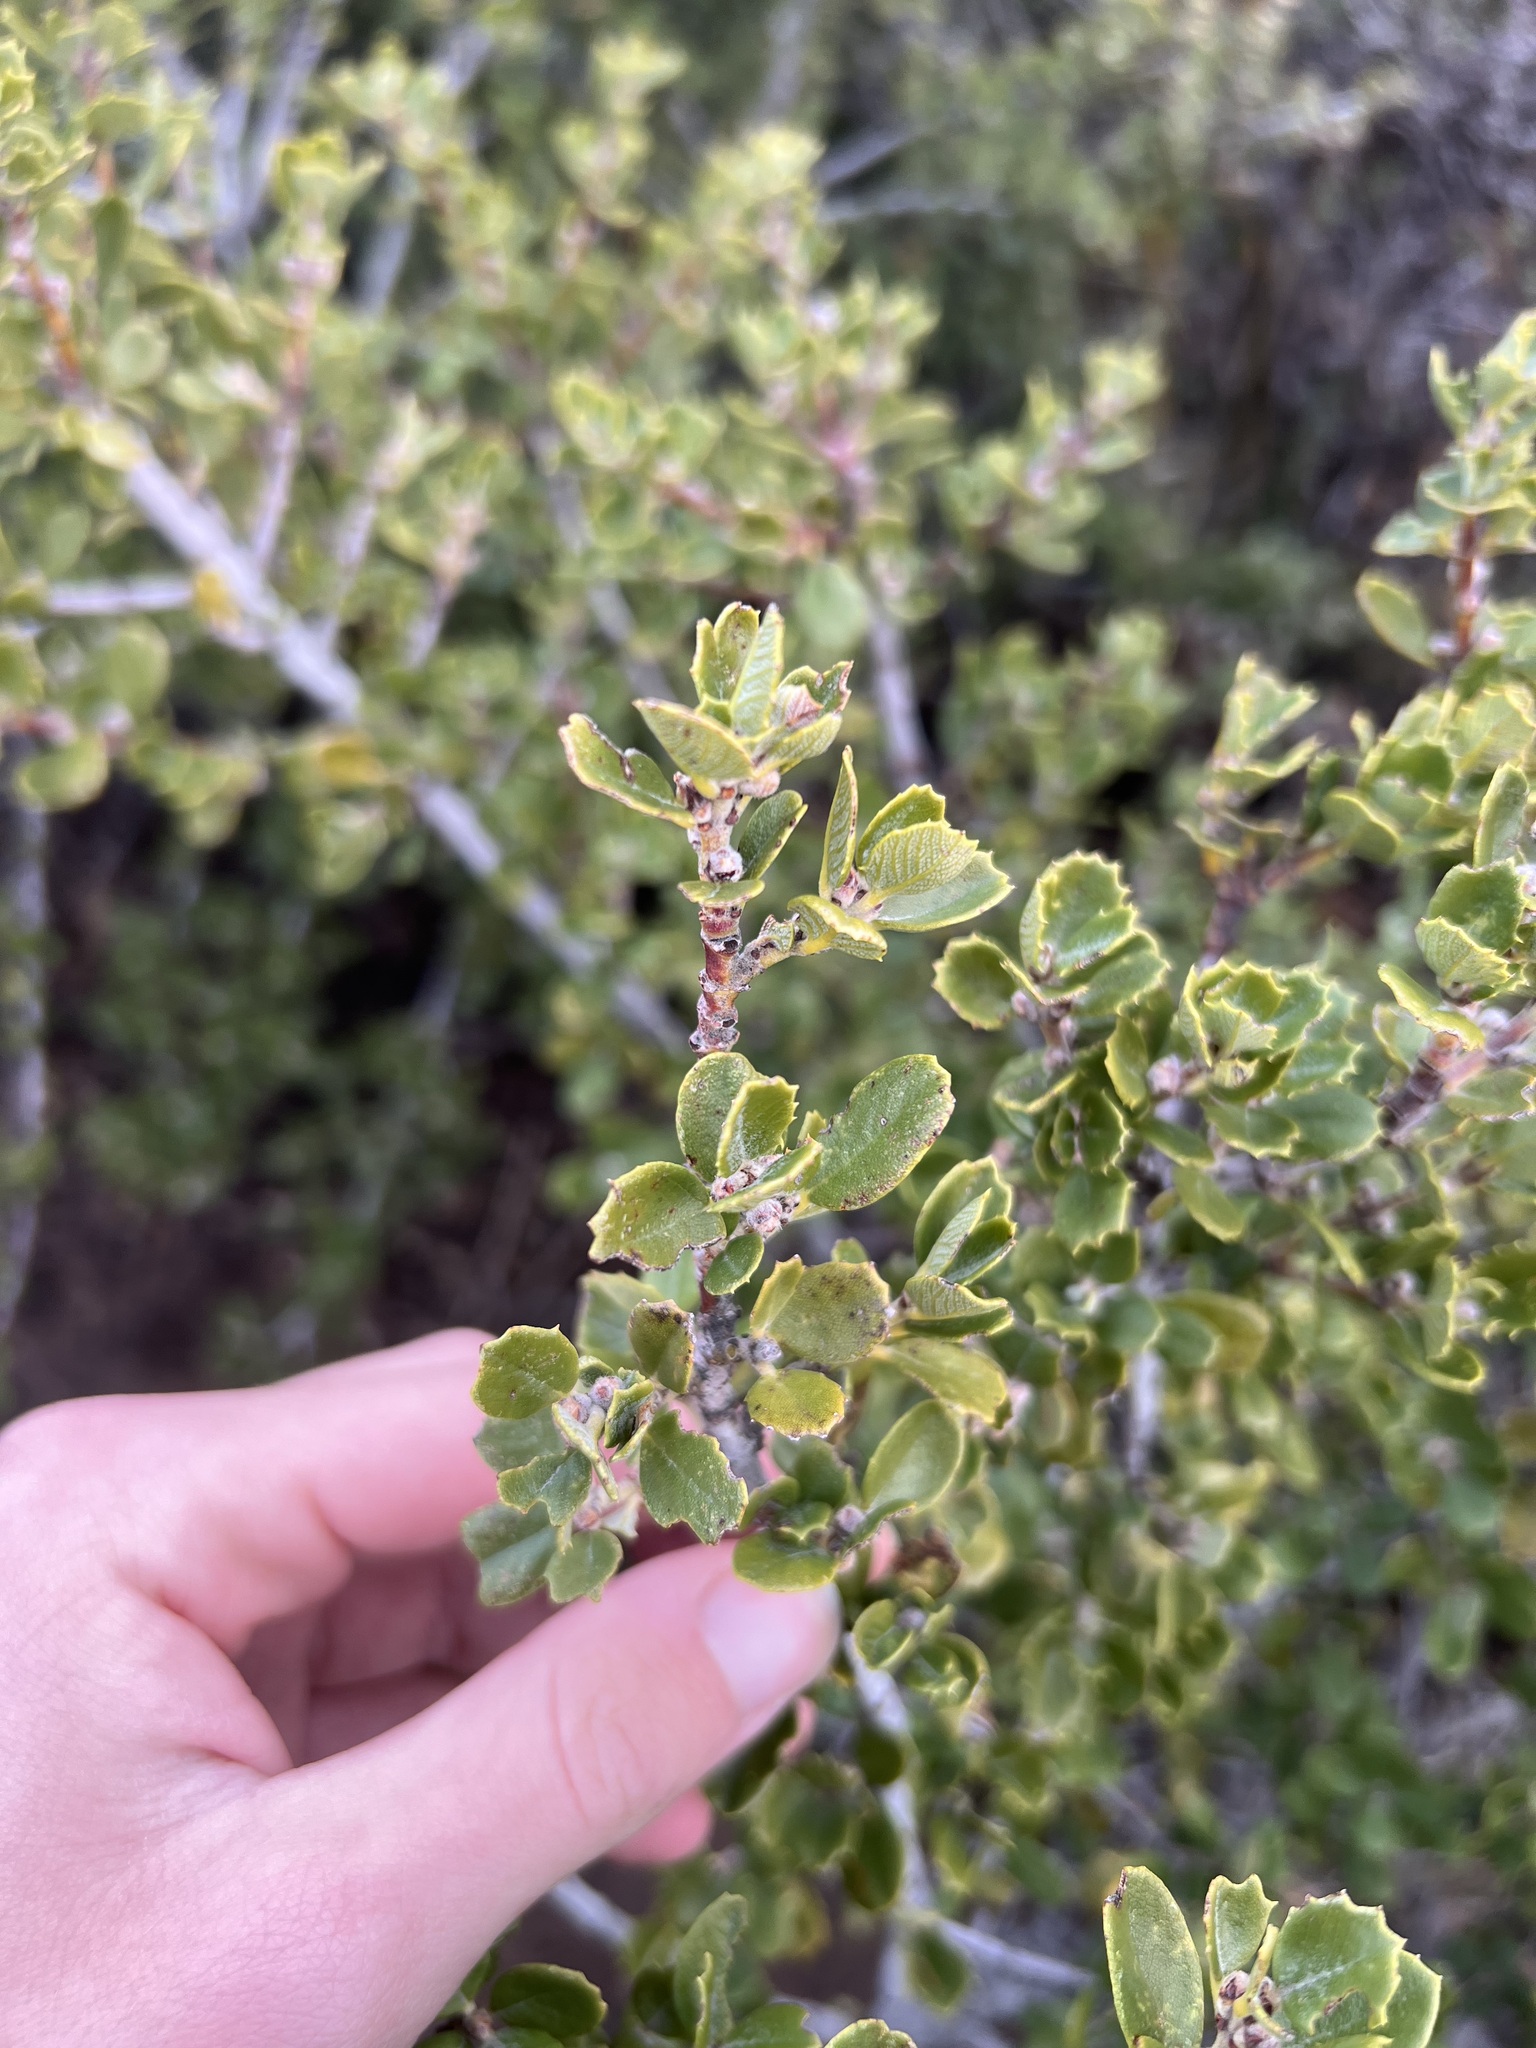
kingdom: Plantae
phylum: Tracheophyta
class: Magnoliopsida
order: Rosales
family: Rhamnaceae
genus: Ceanothus
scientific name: Ceanothus perplexans
